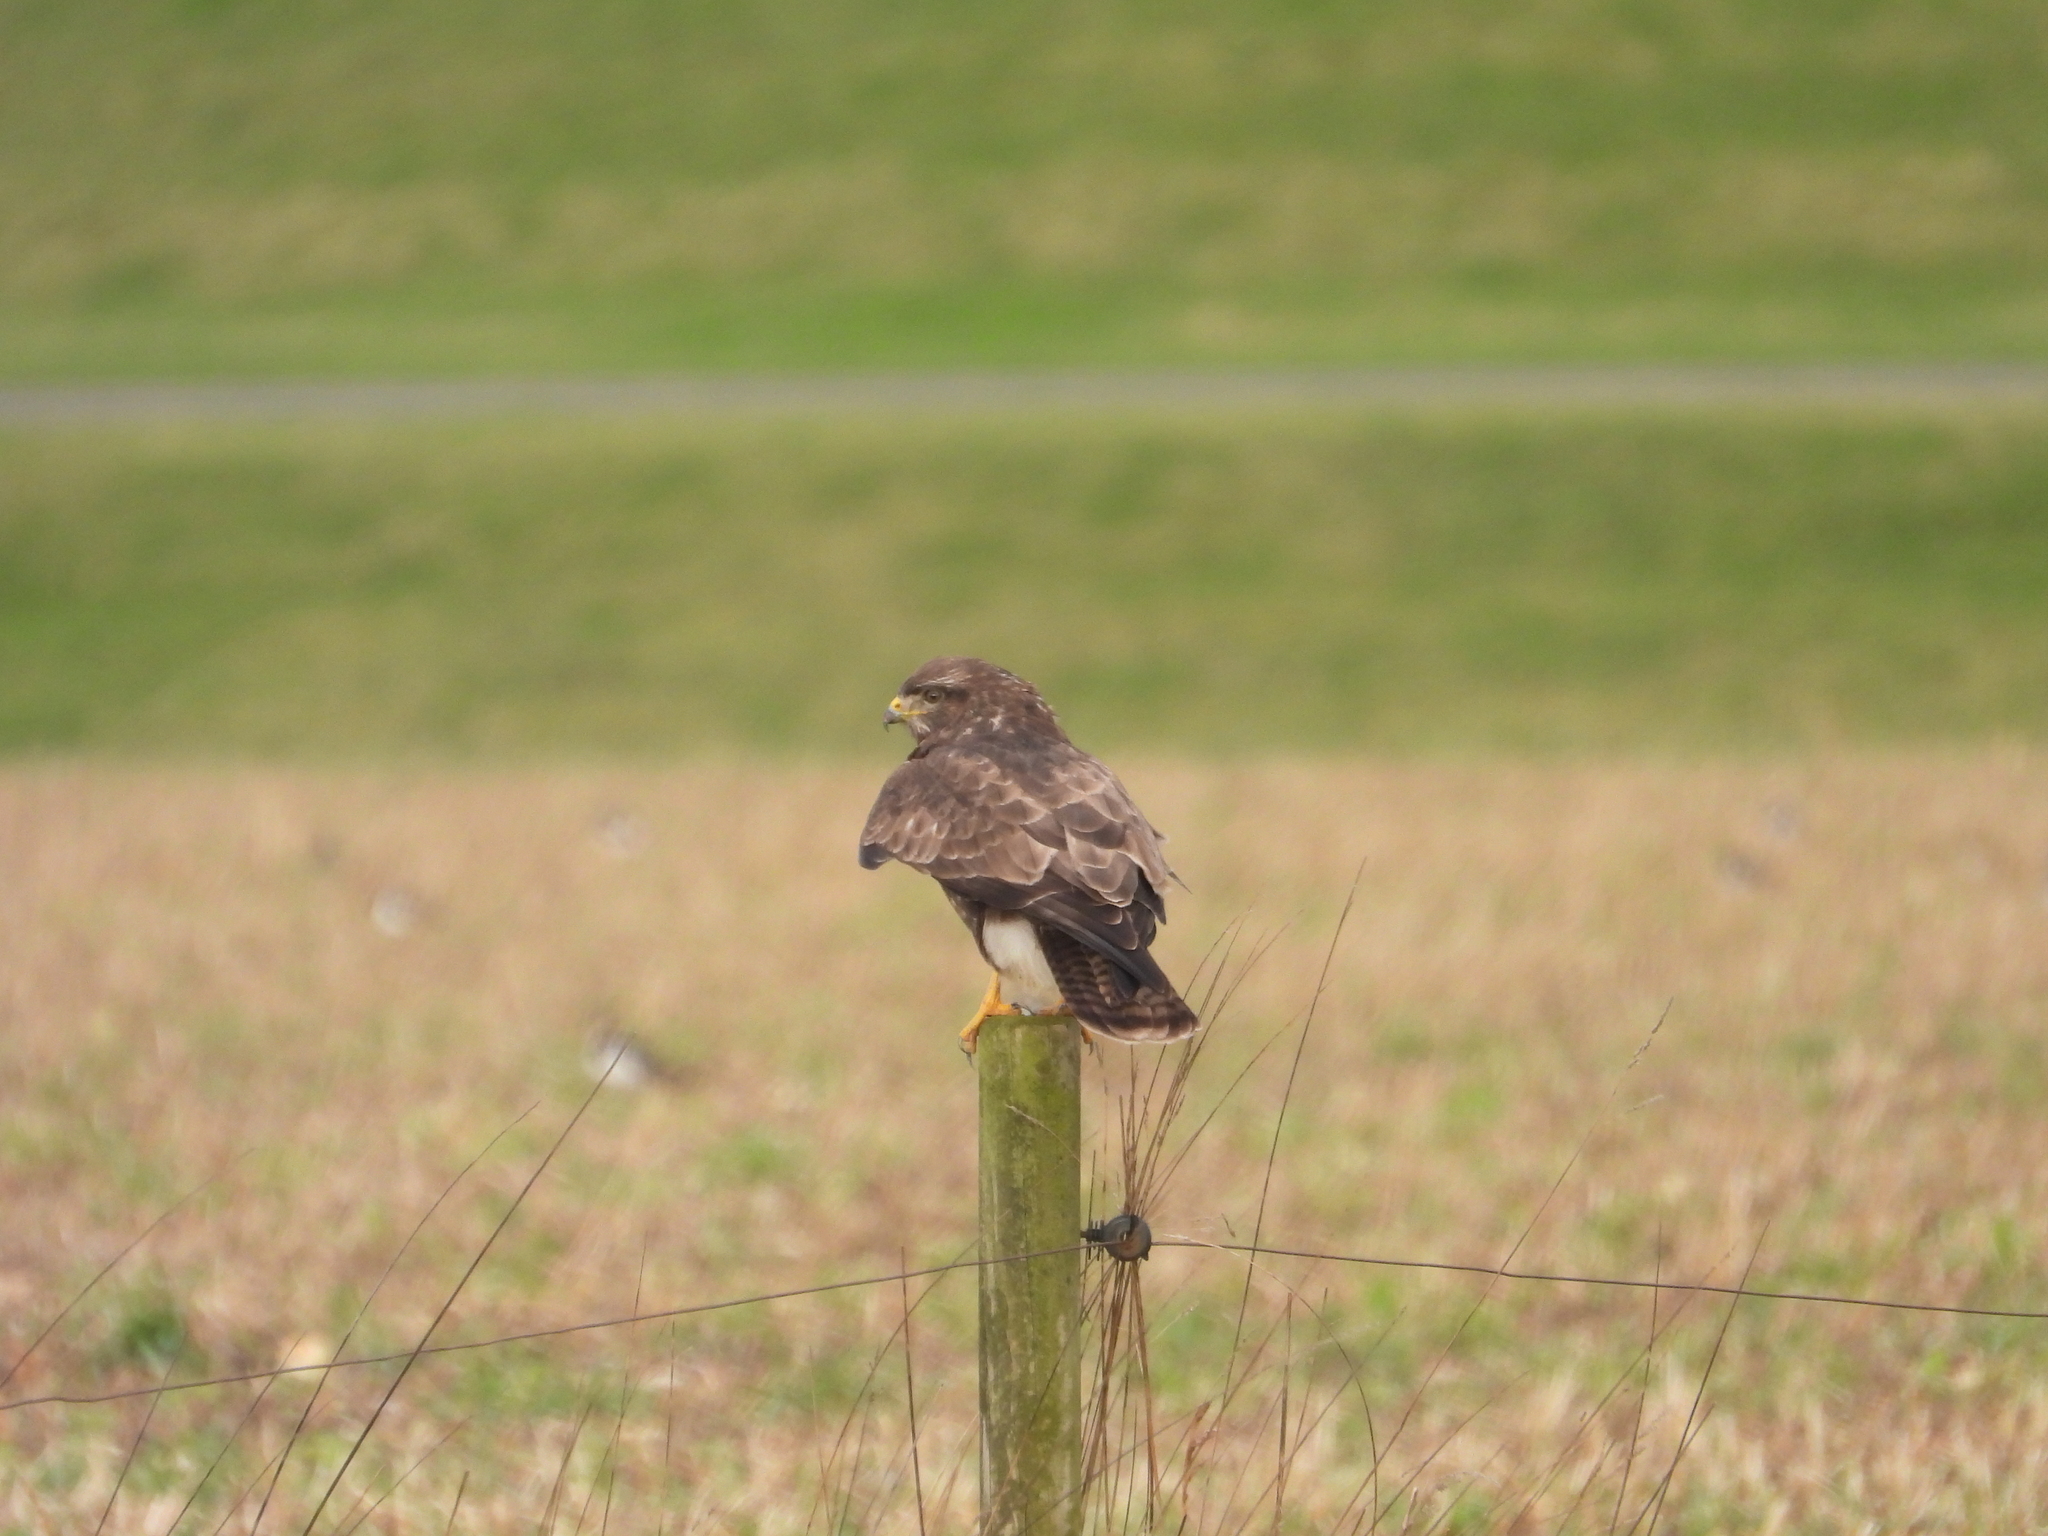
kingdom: Animalia
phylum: Chordata
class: Aves
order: Accipitriformes
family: Accipitridae
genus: Buteo
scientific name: Buteo buteo
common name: Common buzzard
